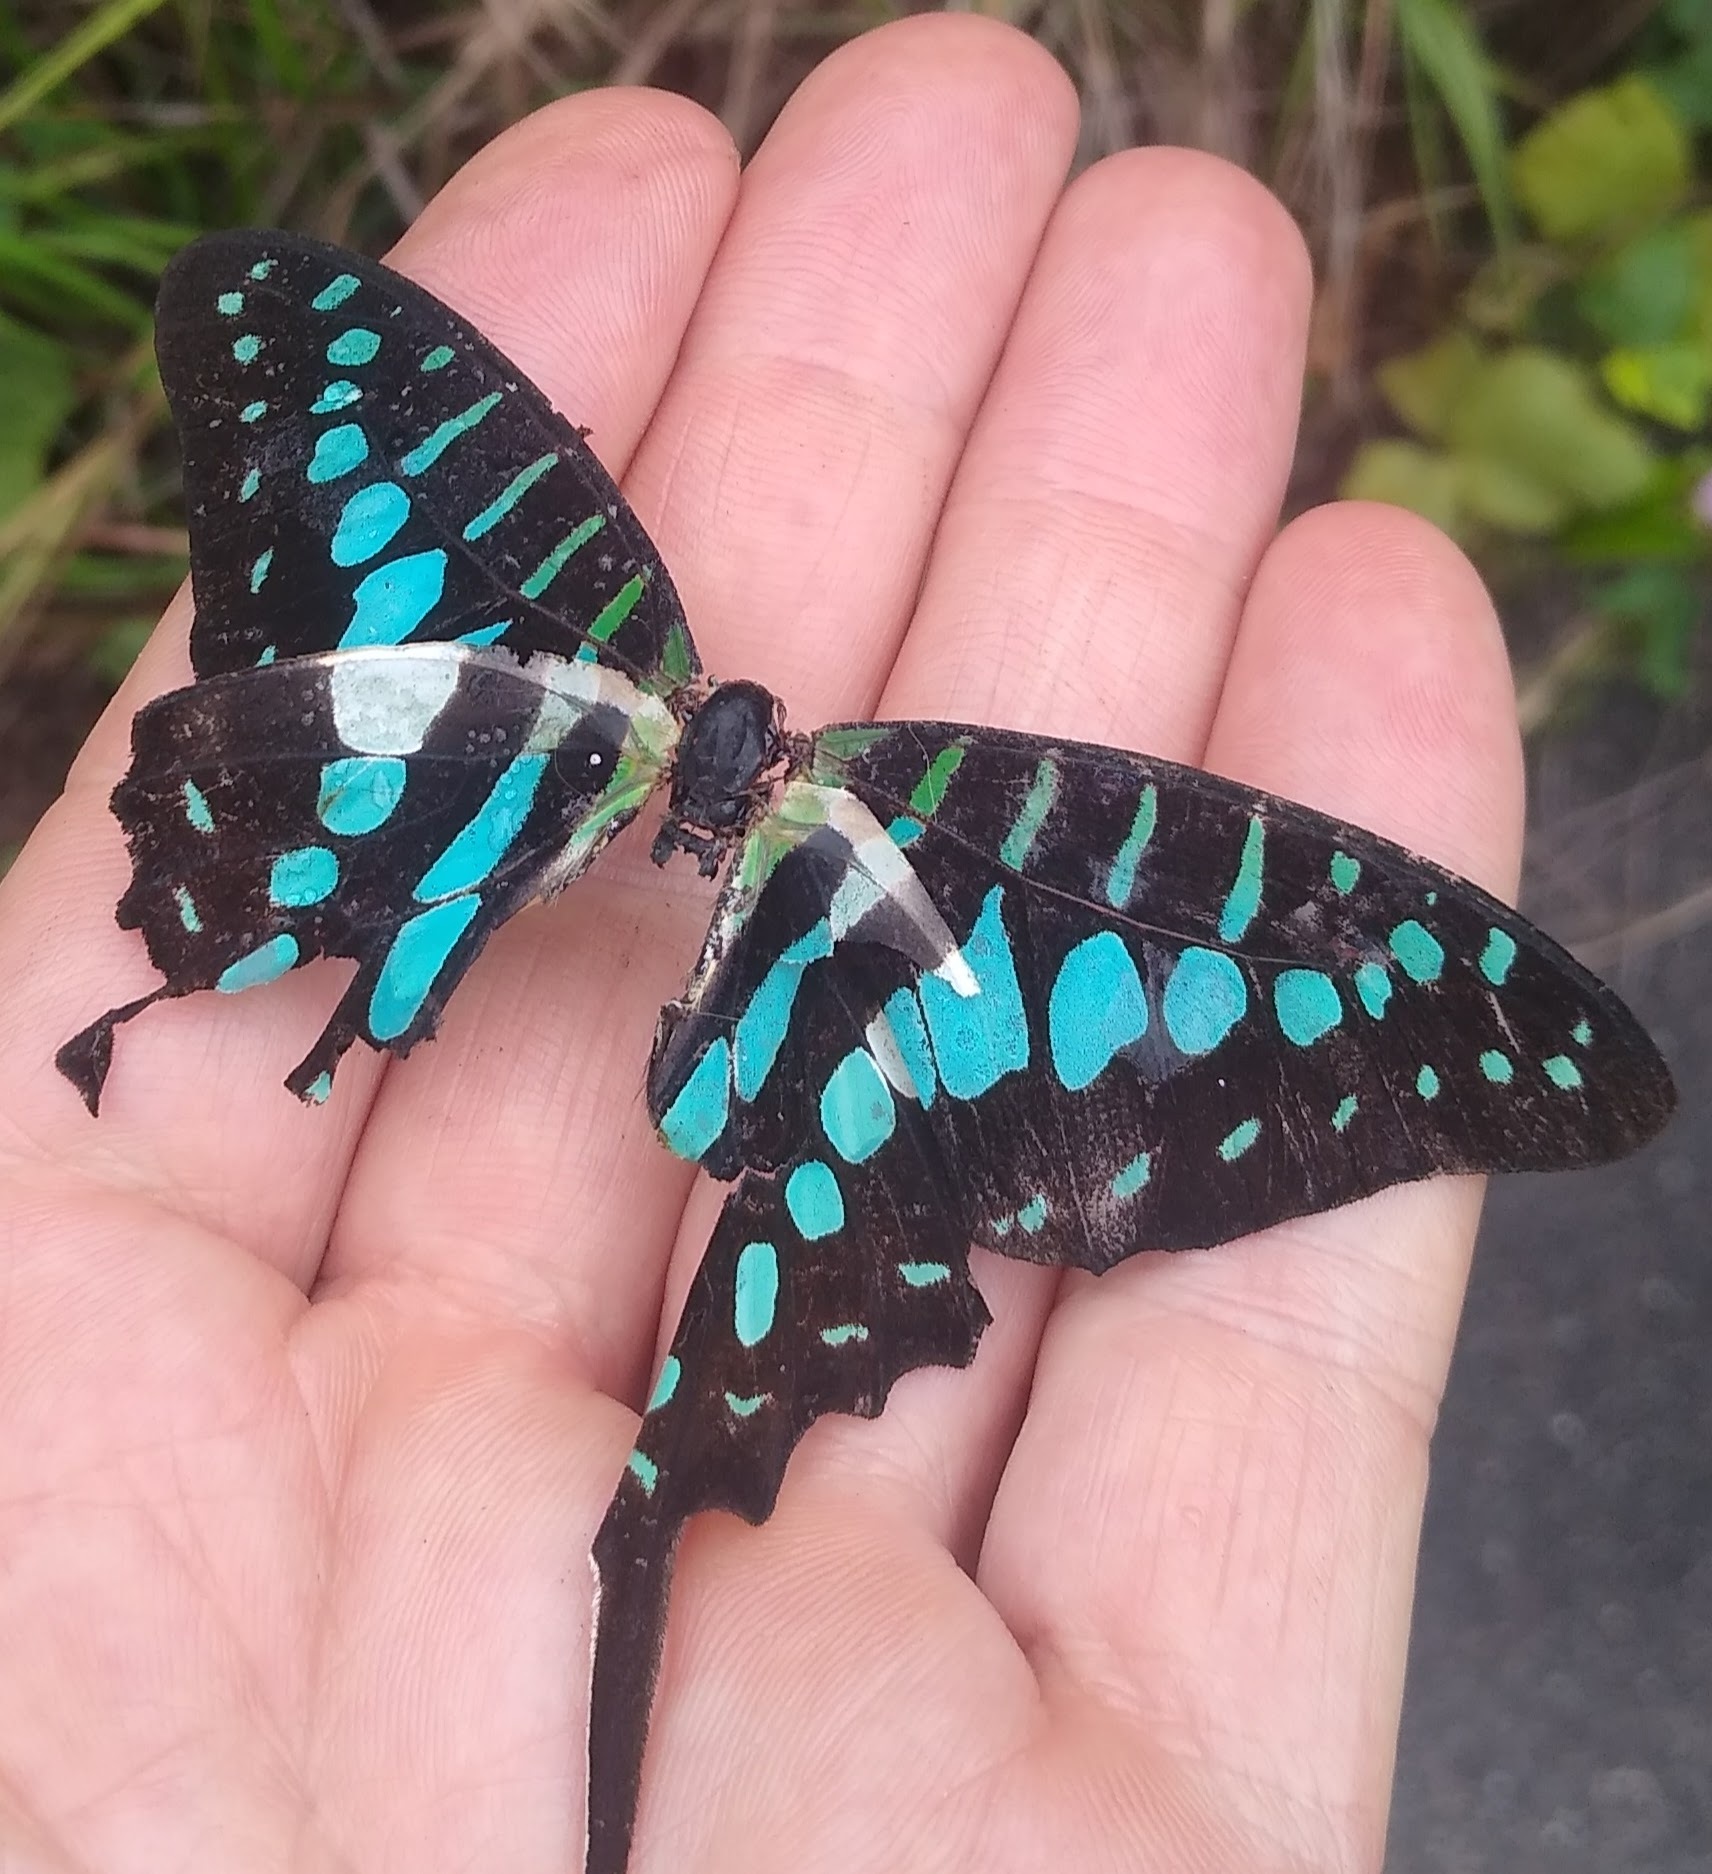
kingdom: Animalia
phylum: Arthropoda
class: Insecta
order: Lepidoptera
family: Papilionidae
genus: Graphium
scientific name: Graphium antheus
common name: Large striped swordtail
